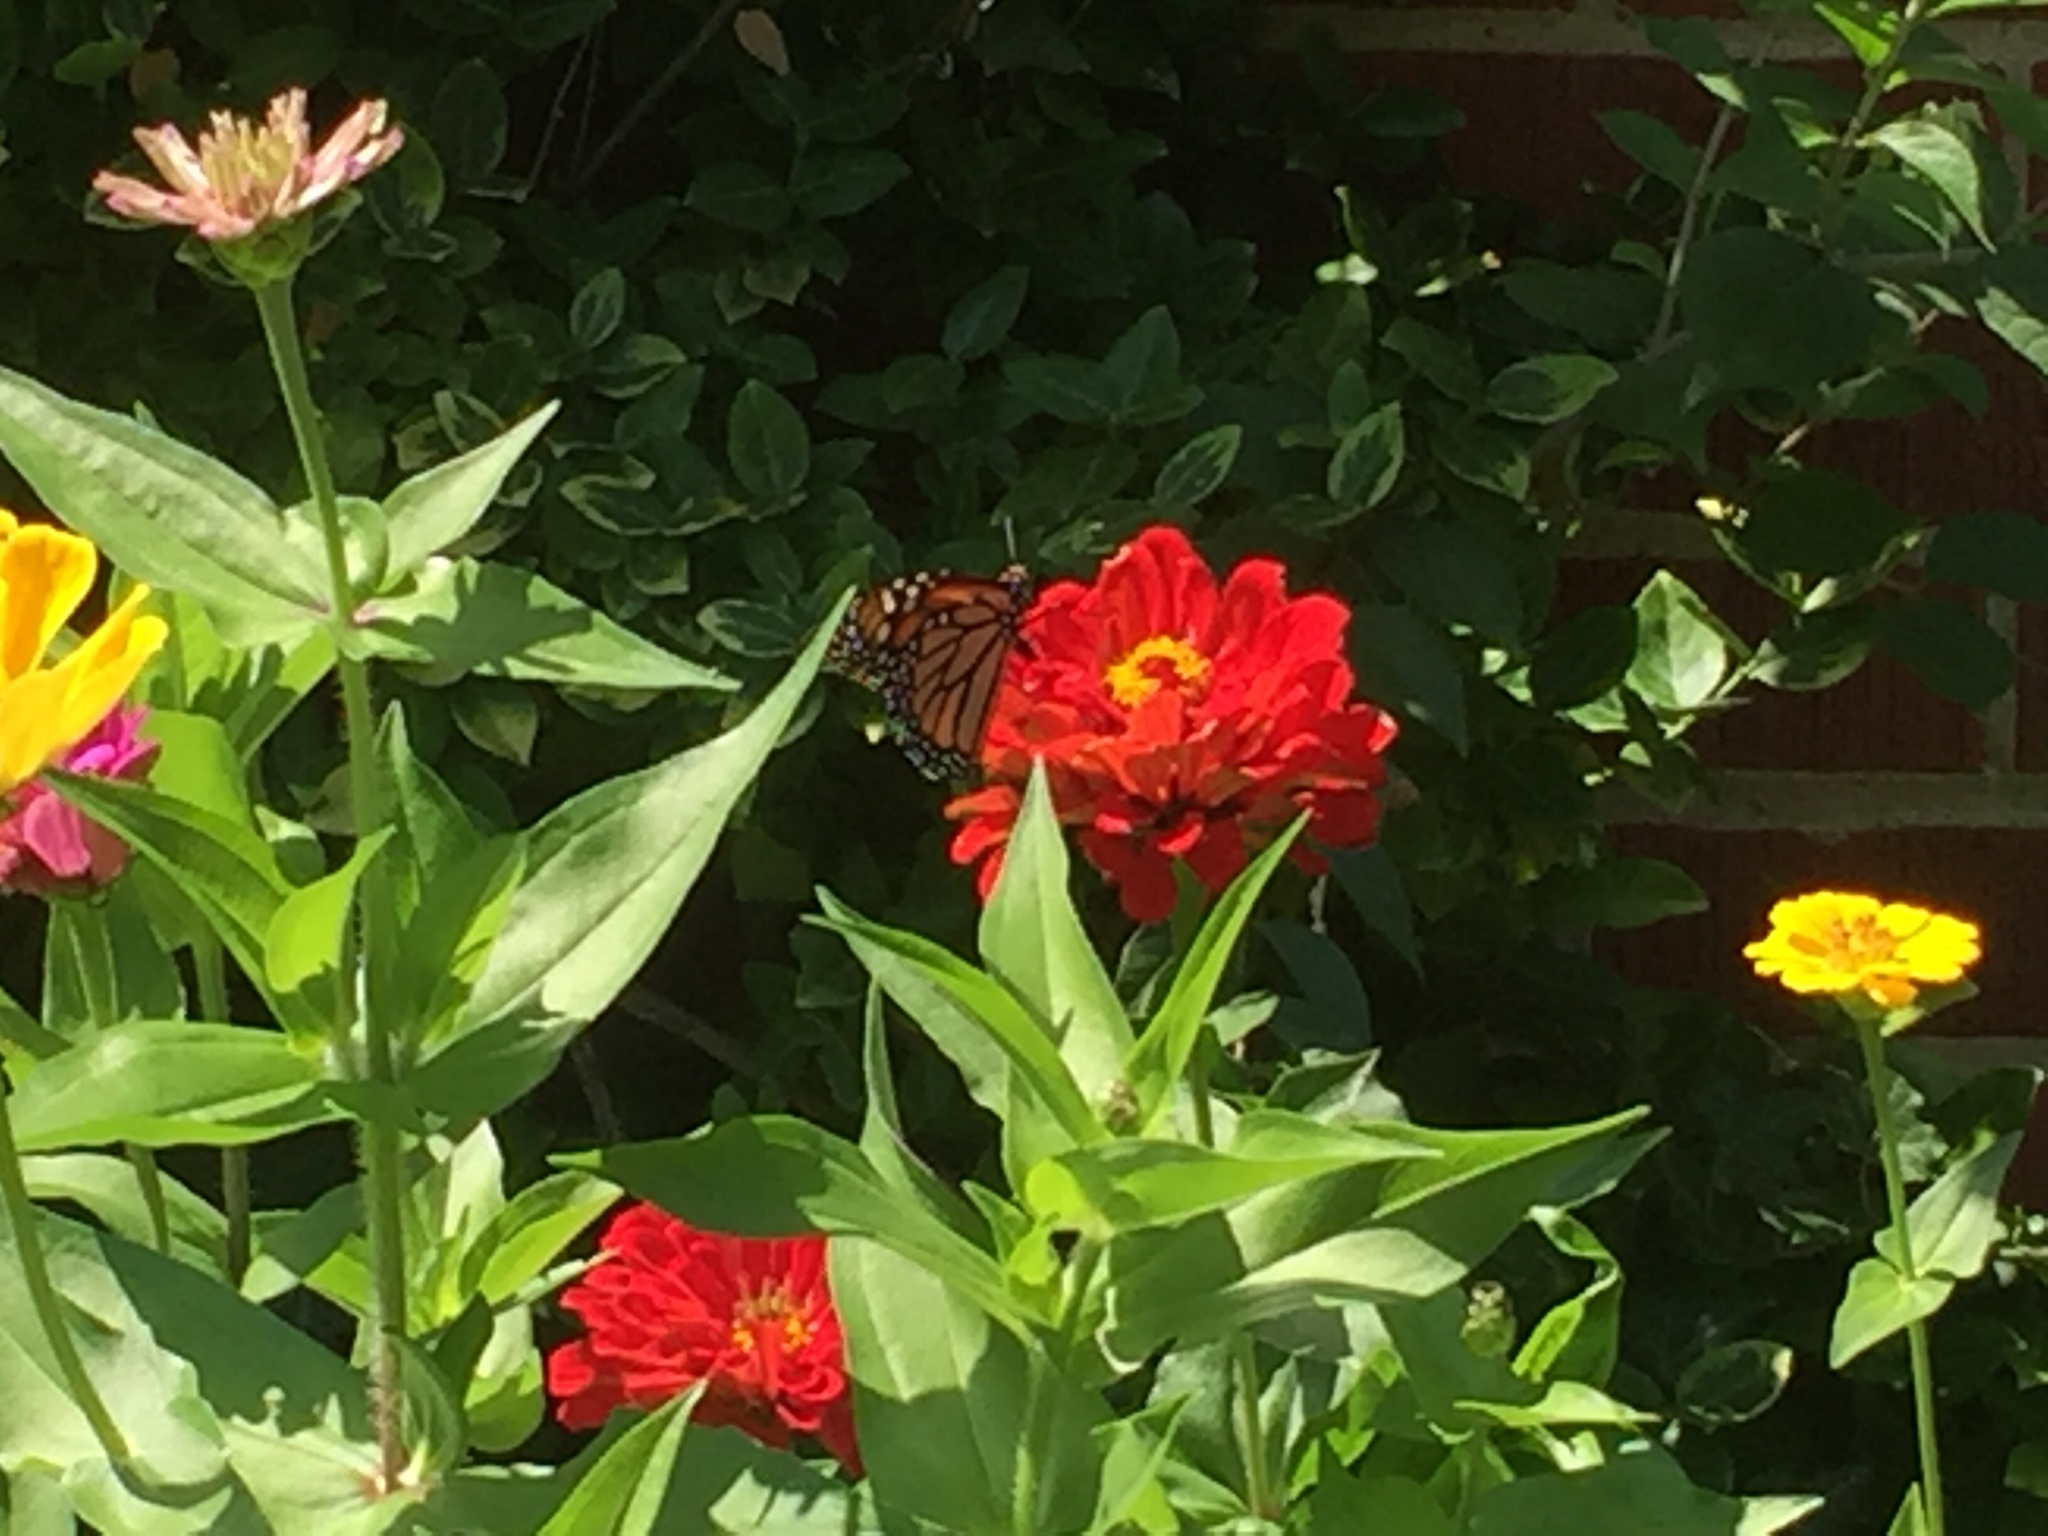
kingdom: Animalia
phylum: Arthropoda
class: Insecta
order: Lepidoptera
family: Nymphalidae
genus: Danaus
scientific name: Danaus plexippus
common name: Monarch
